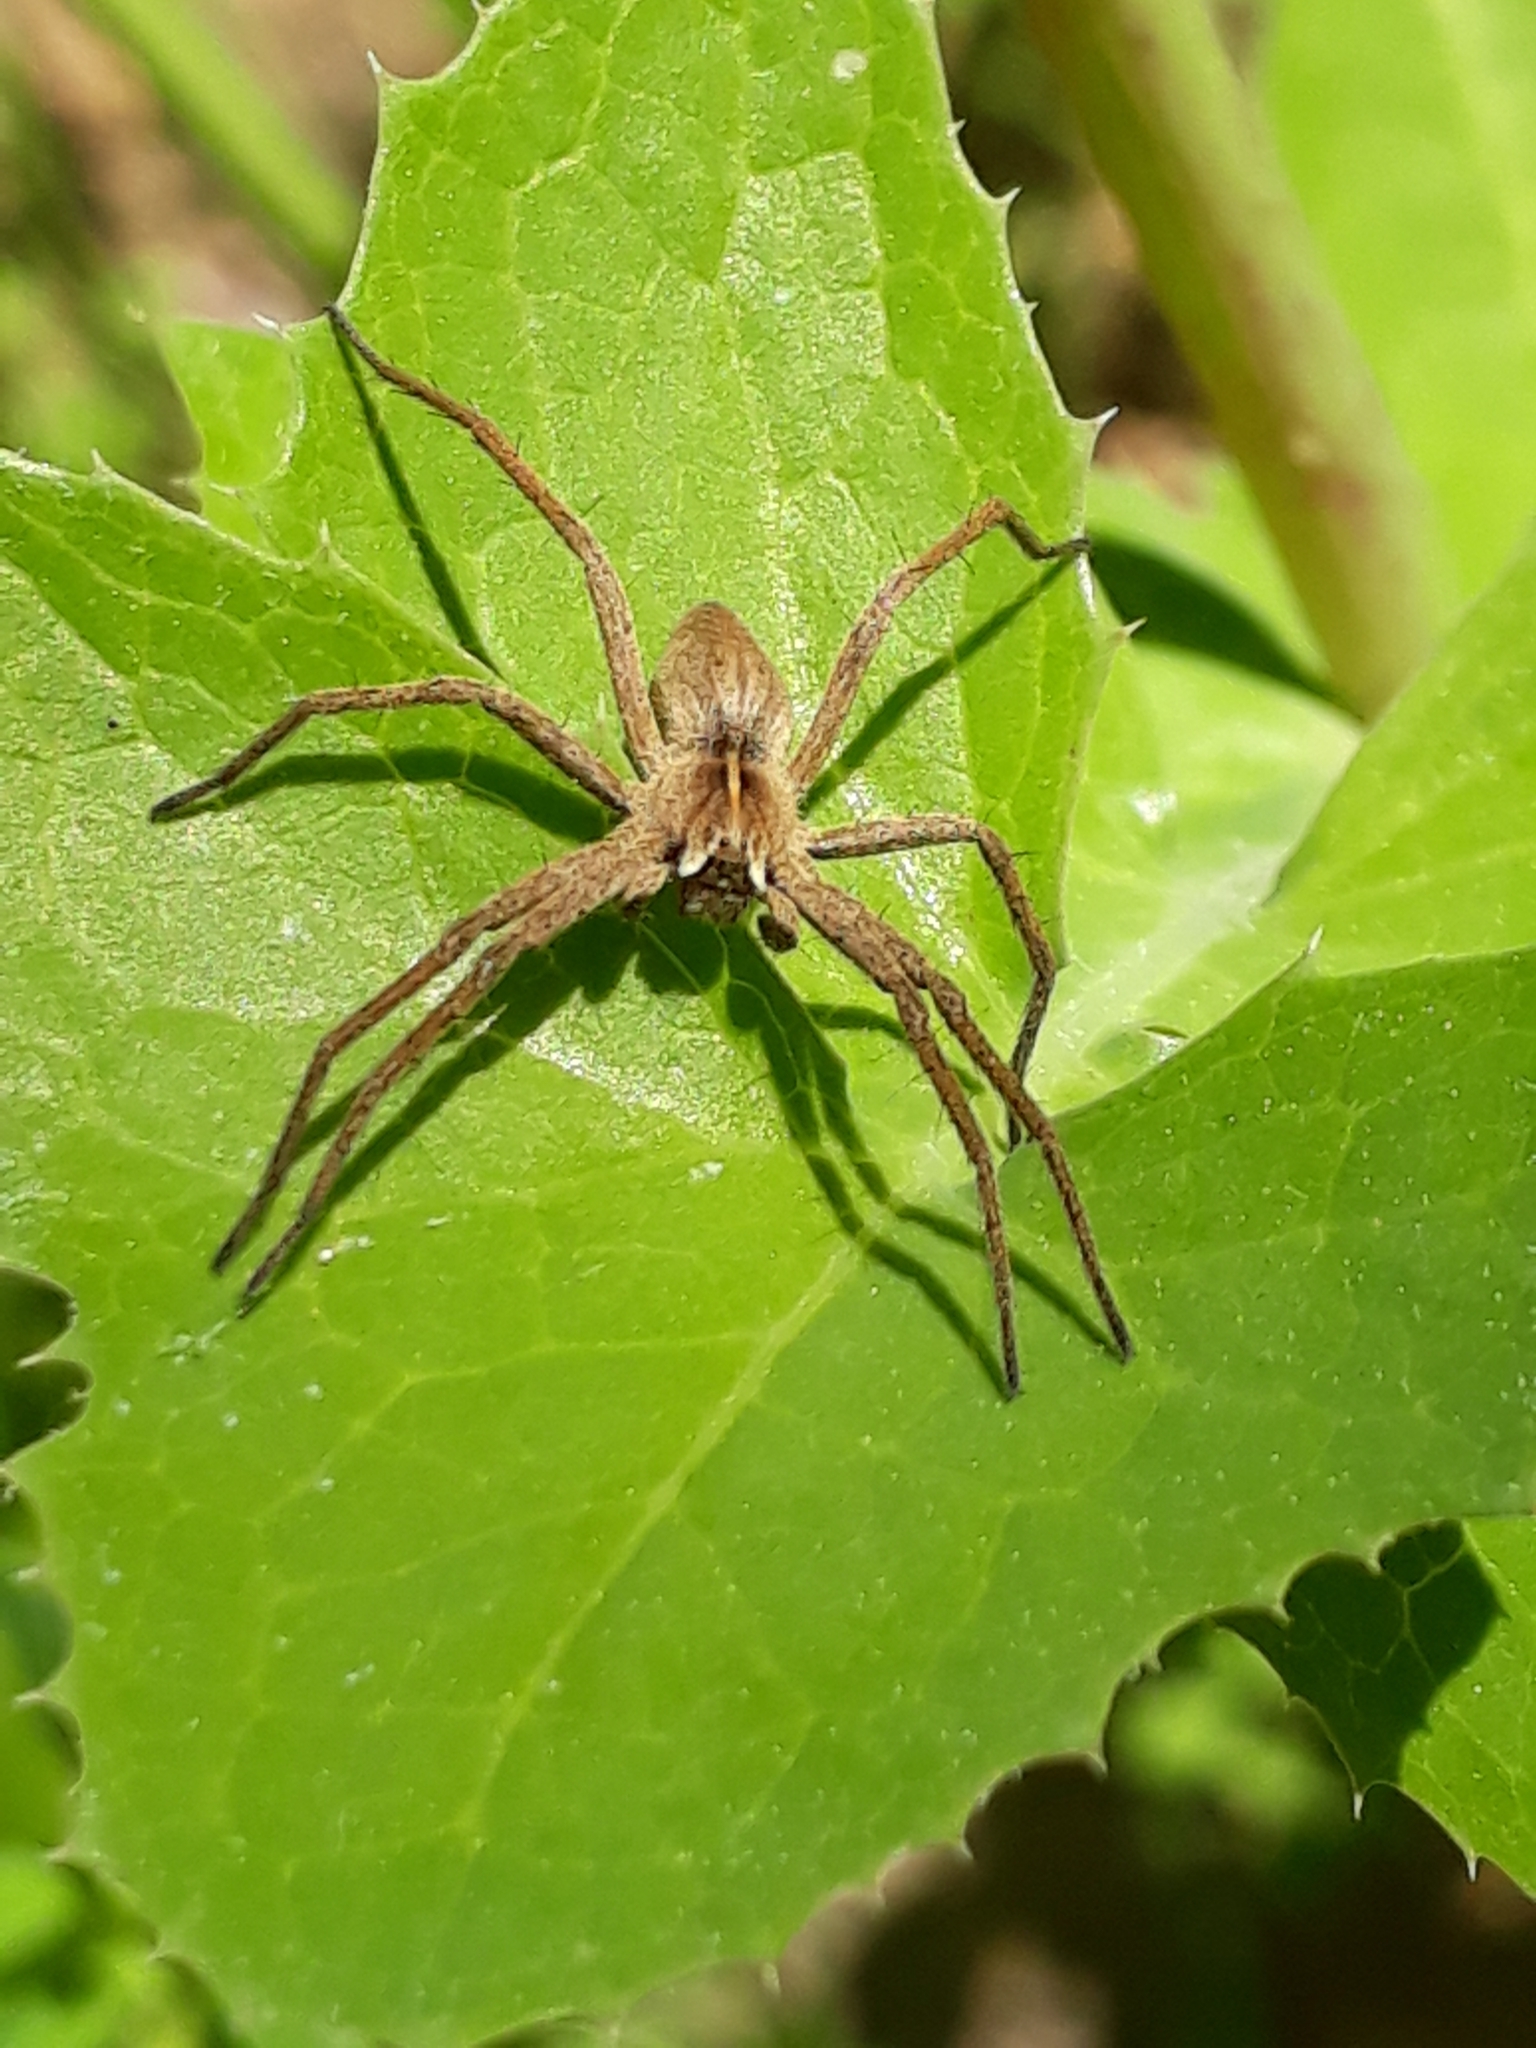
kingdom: Animalia
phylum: Arthropoda
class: Arachnida
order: Araneae
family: Pisauridae
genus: Pisaura
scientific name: Pisaura mirabilis
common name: Tent spider
